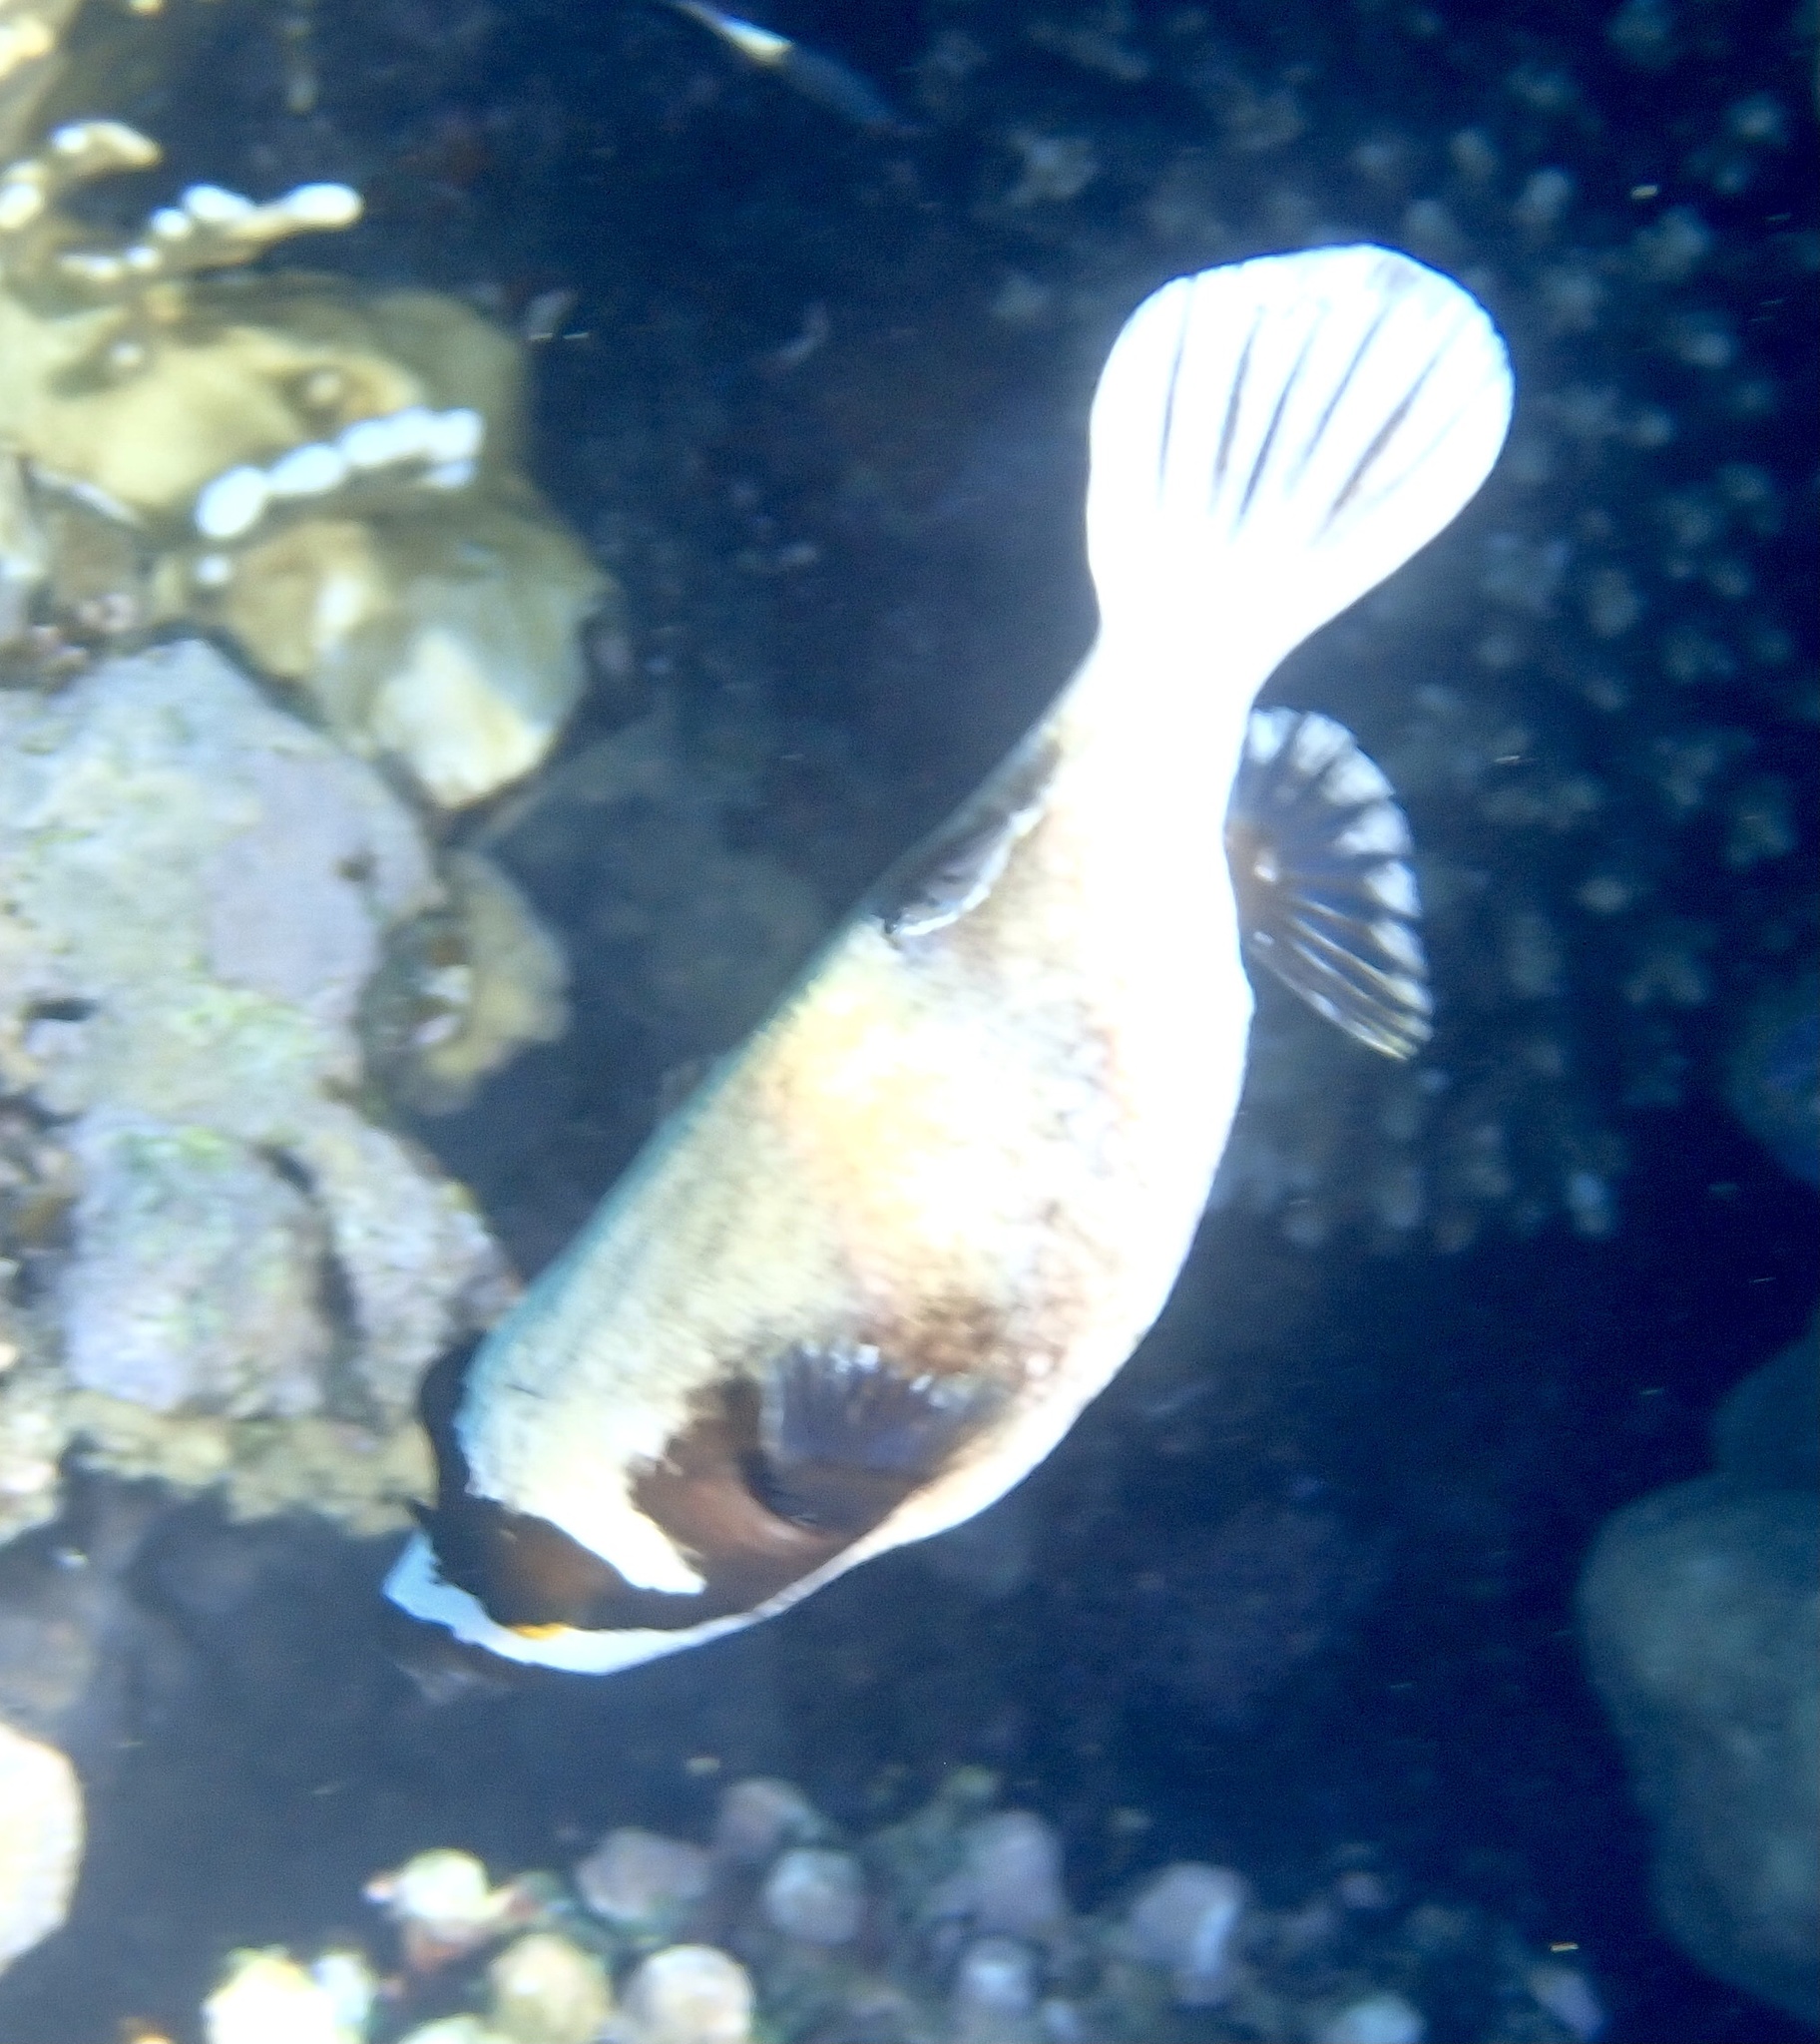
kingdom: Animalia
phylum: Chordata
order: Tetraodontiformes
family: Tetraodontidae
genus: Arothron
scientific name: Arothron diadematus
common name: Masked puffer
